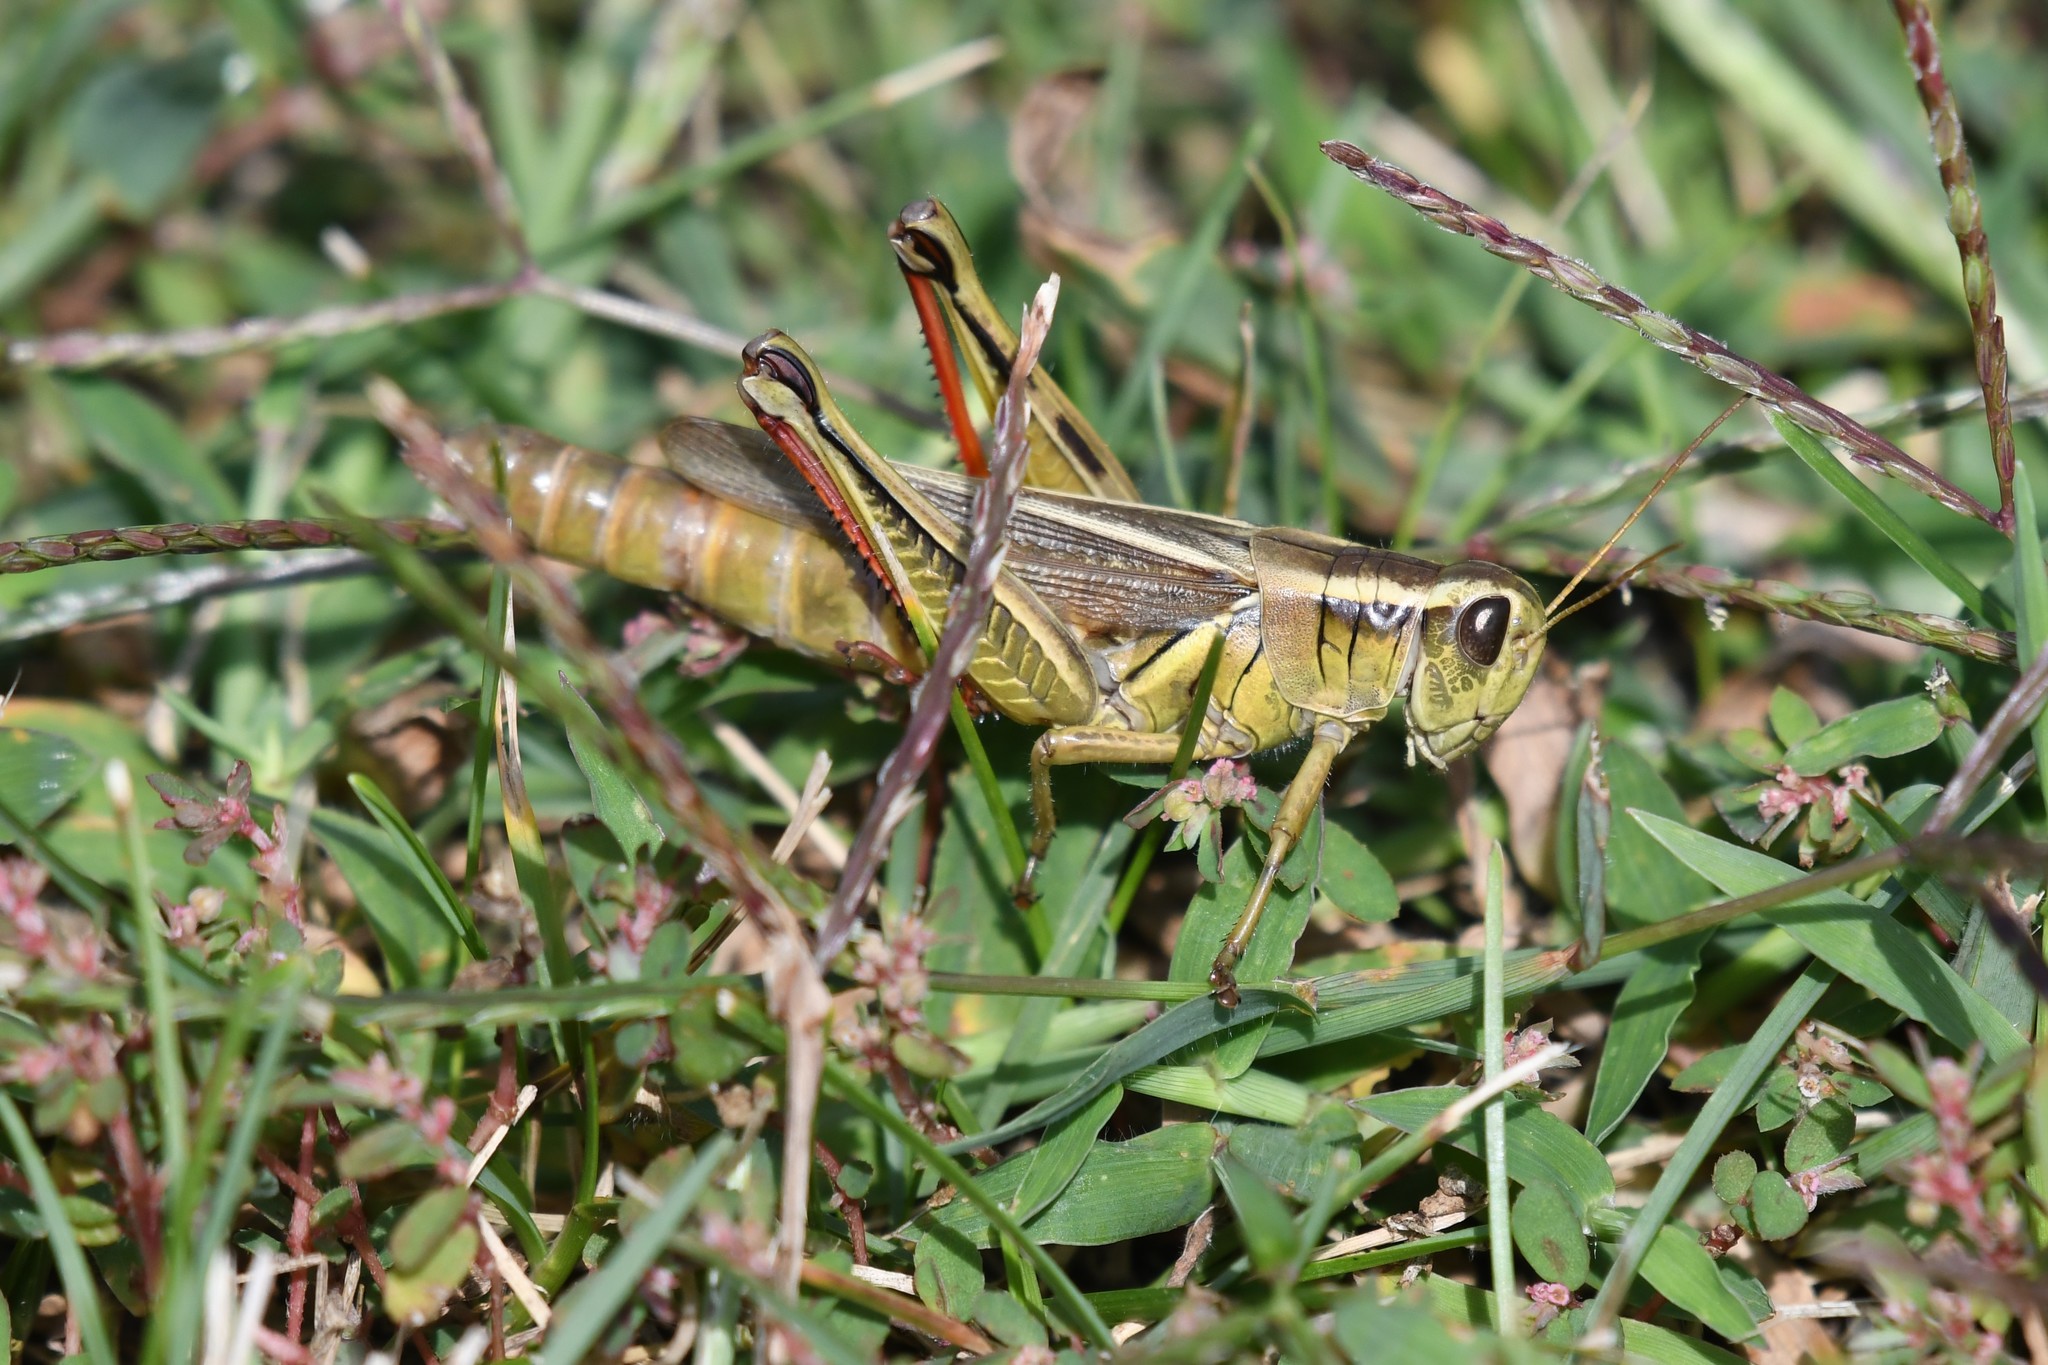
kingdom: Animalia
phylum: Arthropoda
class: Insecta
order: Orthoptera
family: Acrididae
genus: Melanoplus
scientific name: Melanoplus bivittatus
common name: Two-striped grasshopper
